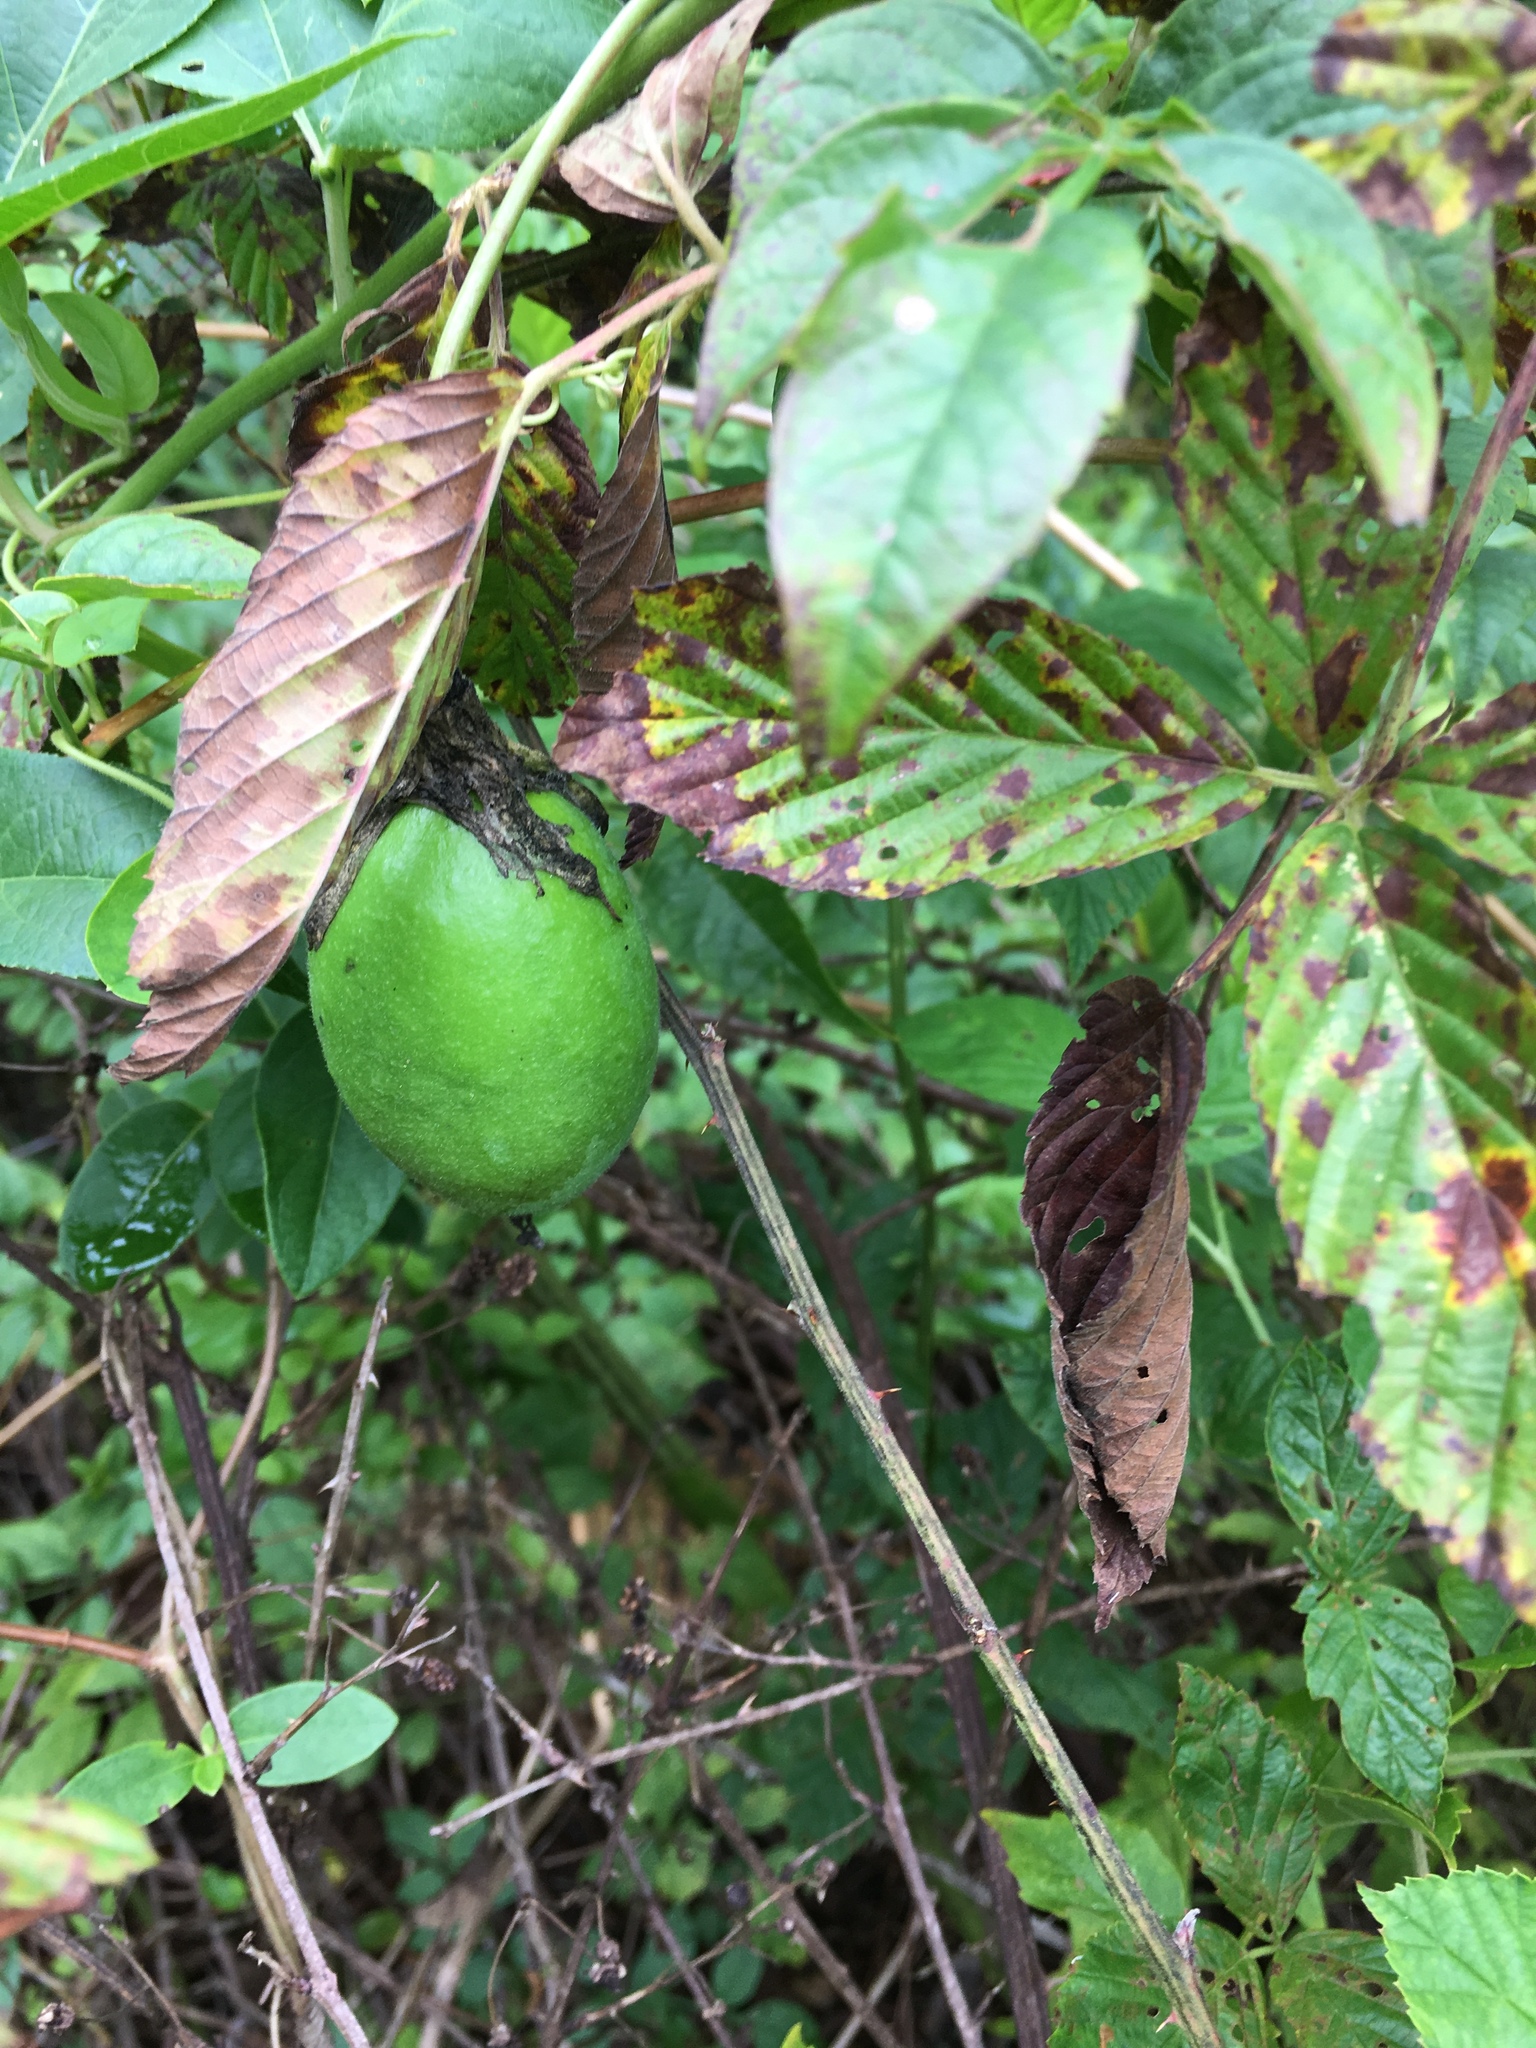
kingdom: Plantae
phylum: Tracheophyta
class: Magnoliopsida
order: Malpighiales
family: Passifloraceae
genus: Passiflora
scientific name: Passiflora incarnata
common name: Apricot-vine
